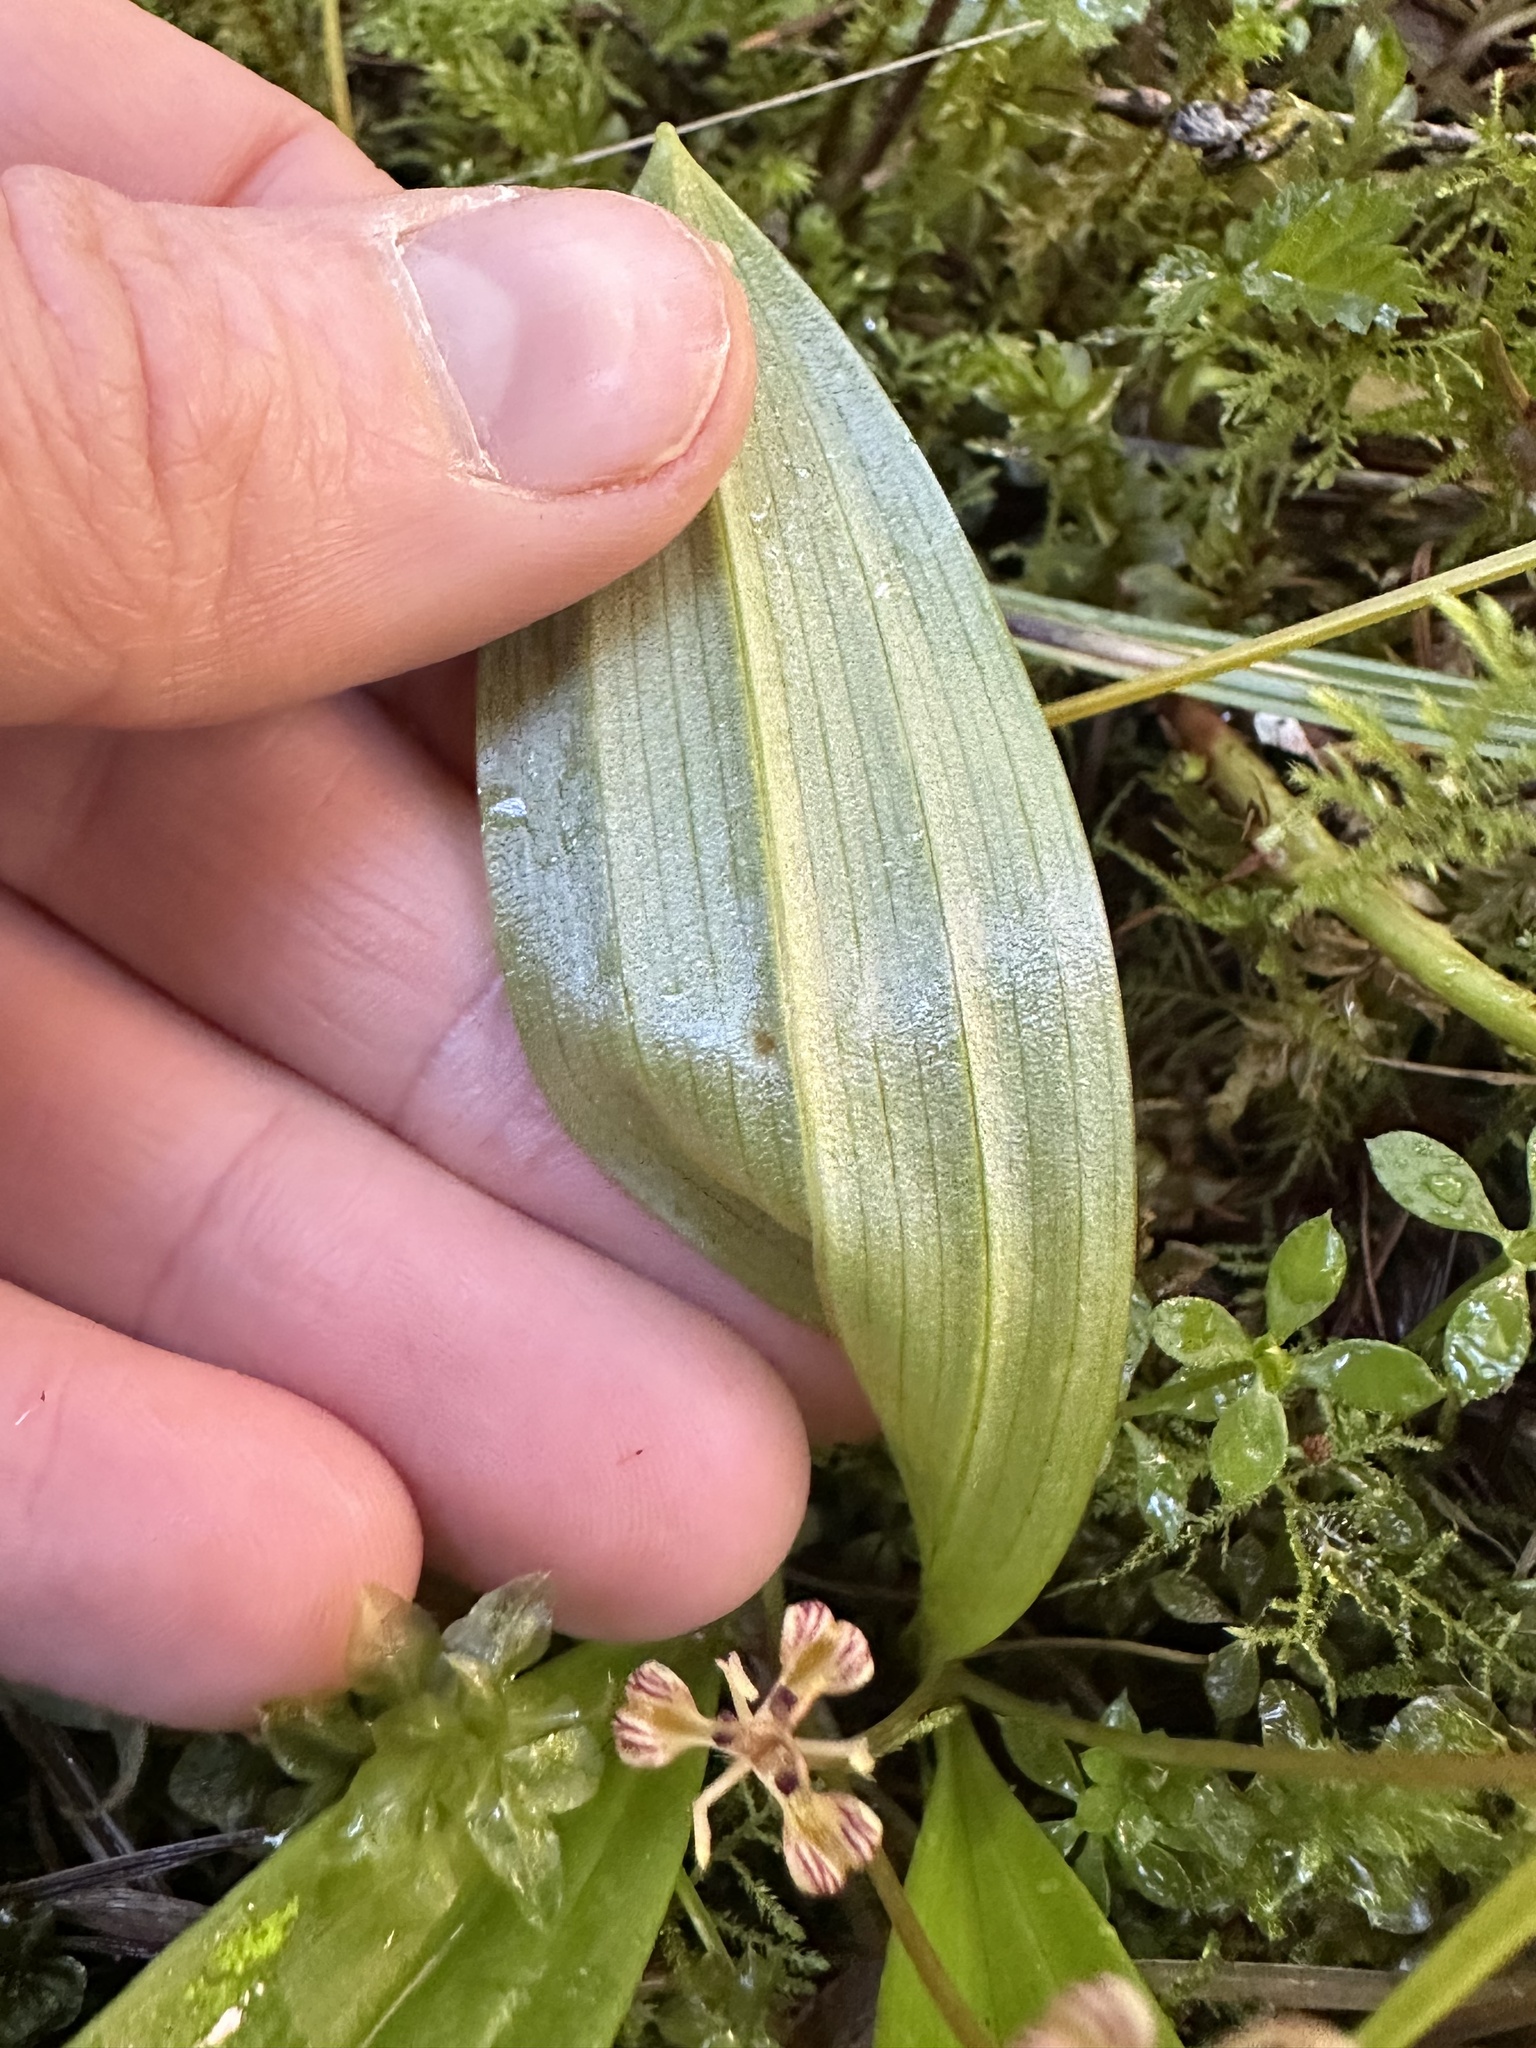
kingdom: Plantae
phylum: Tracheophyta
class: Liliopsida
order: Liliales
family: Liliaceae
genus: Scoliopus
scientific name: Scoliopus hallii
